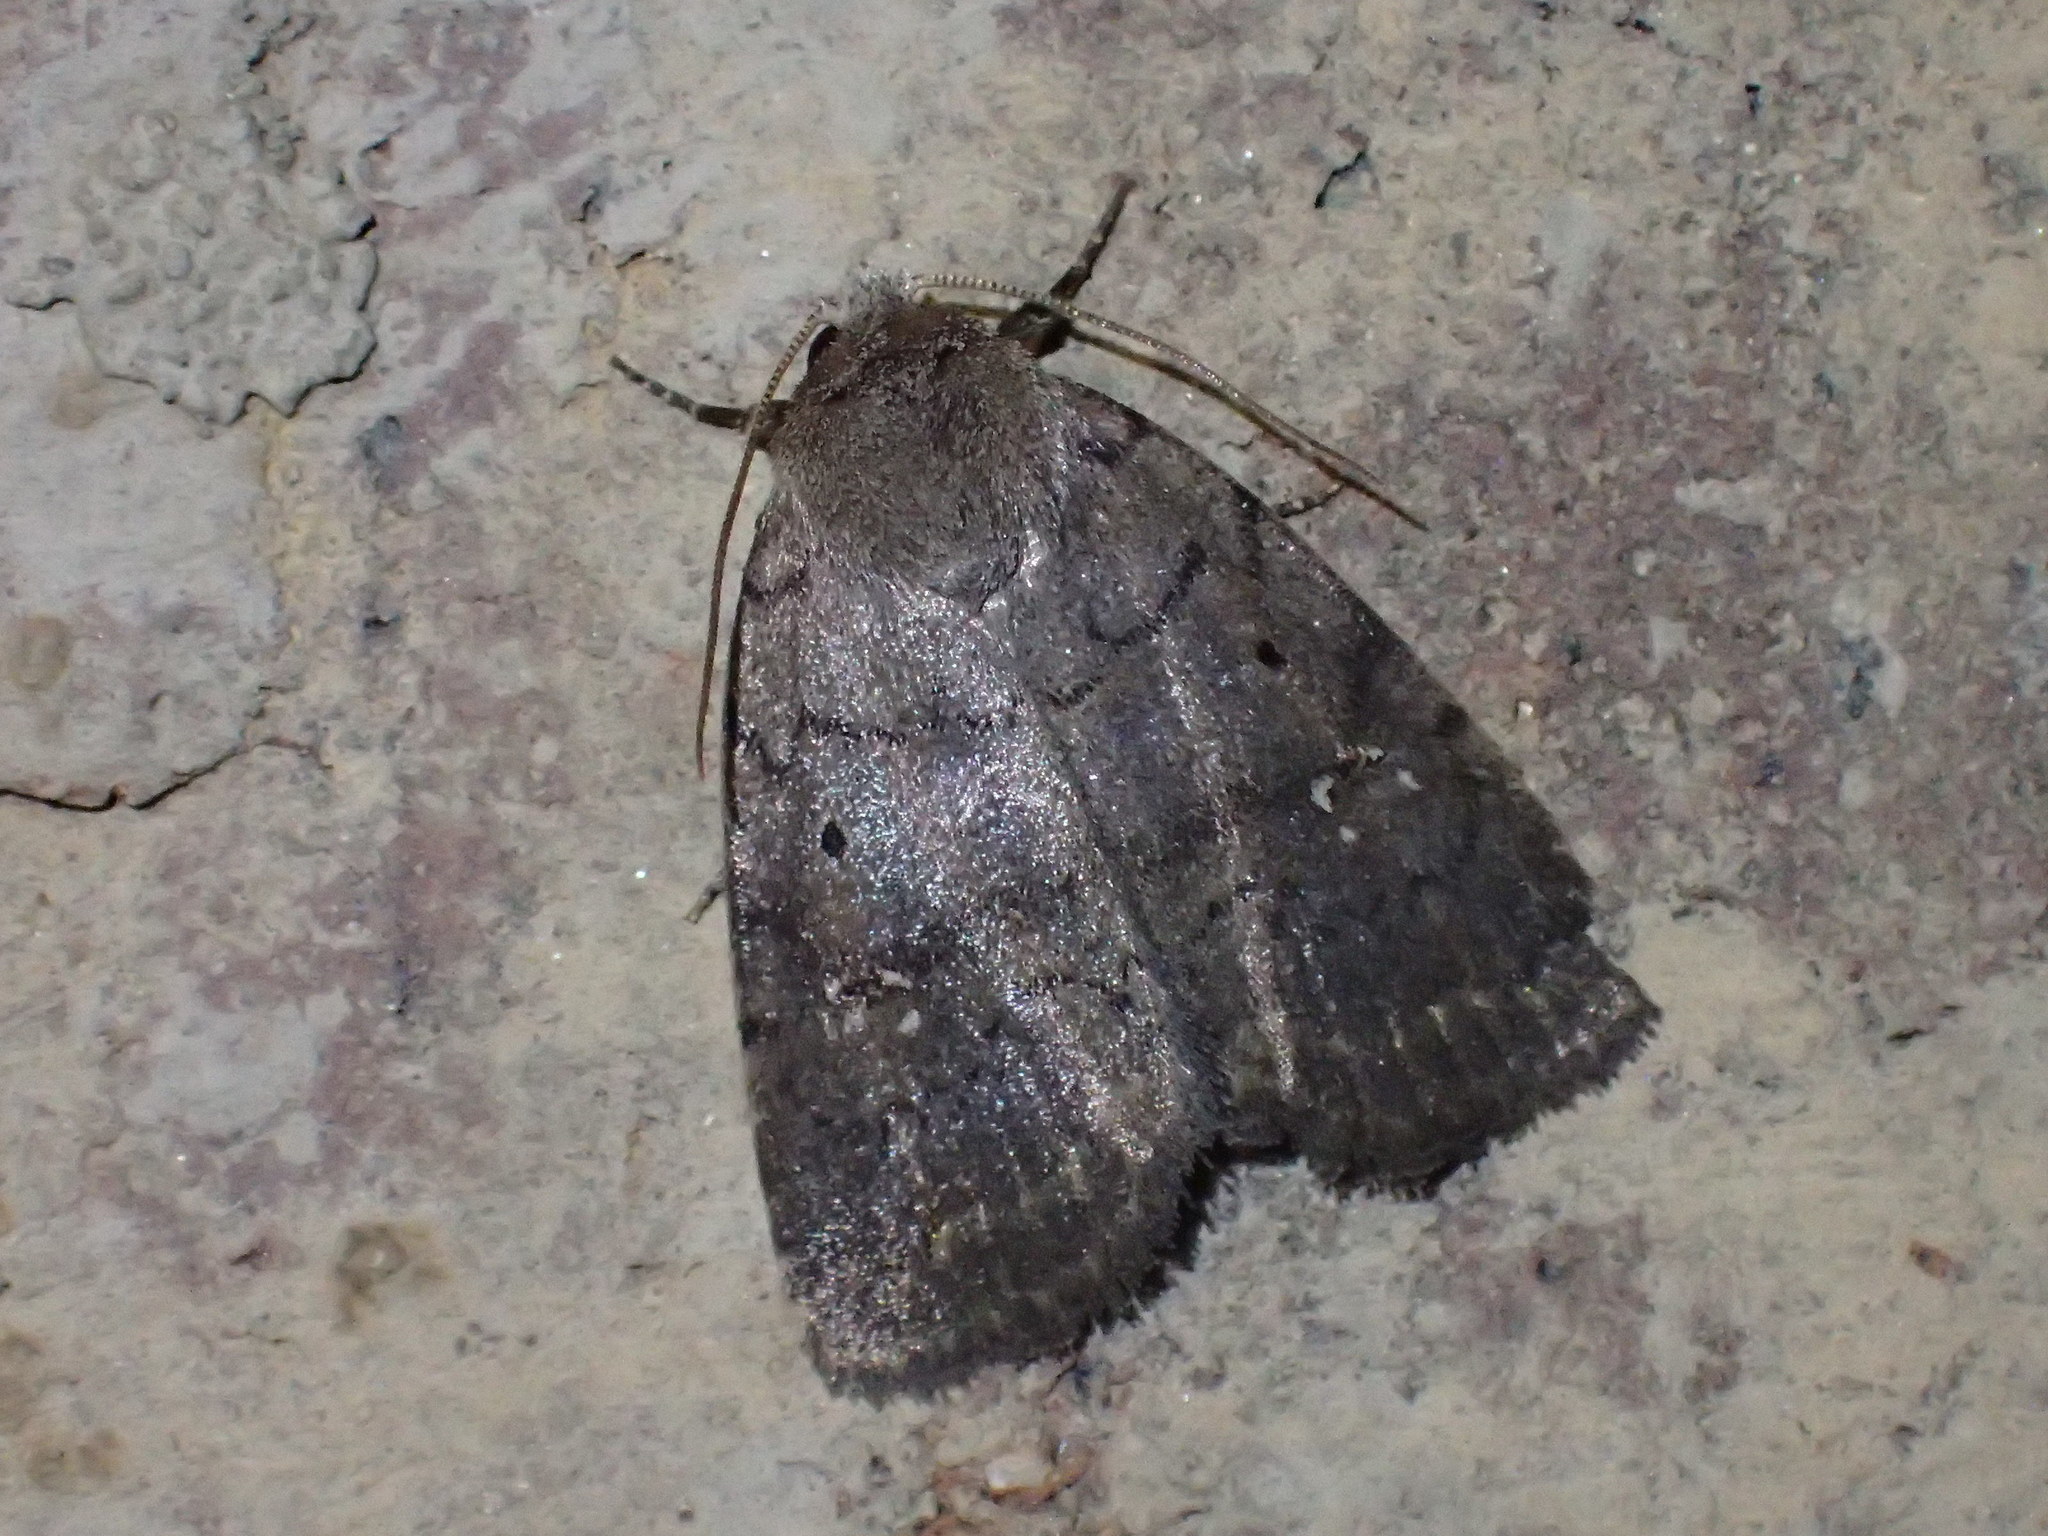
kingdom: Animalia
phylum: Arthropoda
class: Insecta
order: Lepidoptera
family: Noctuidae
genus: Athetis
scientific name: Athetis tarda
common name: Slowpoke moth
